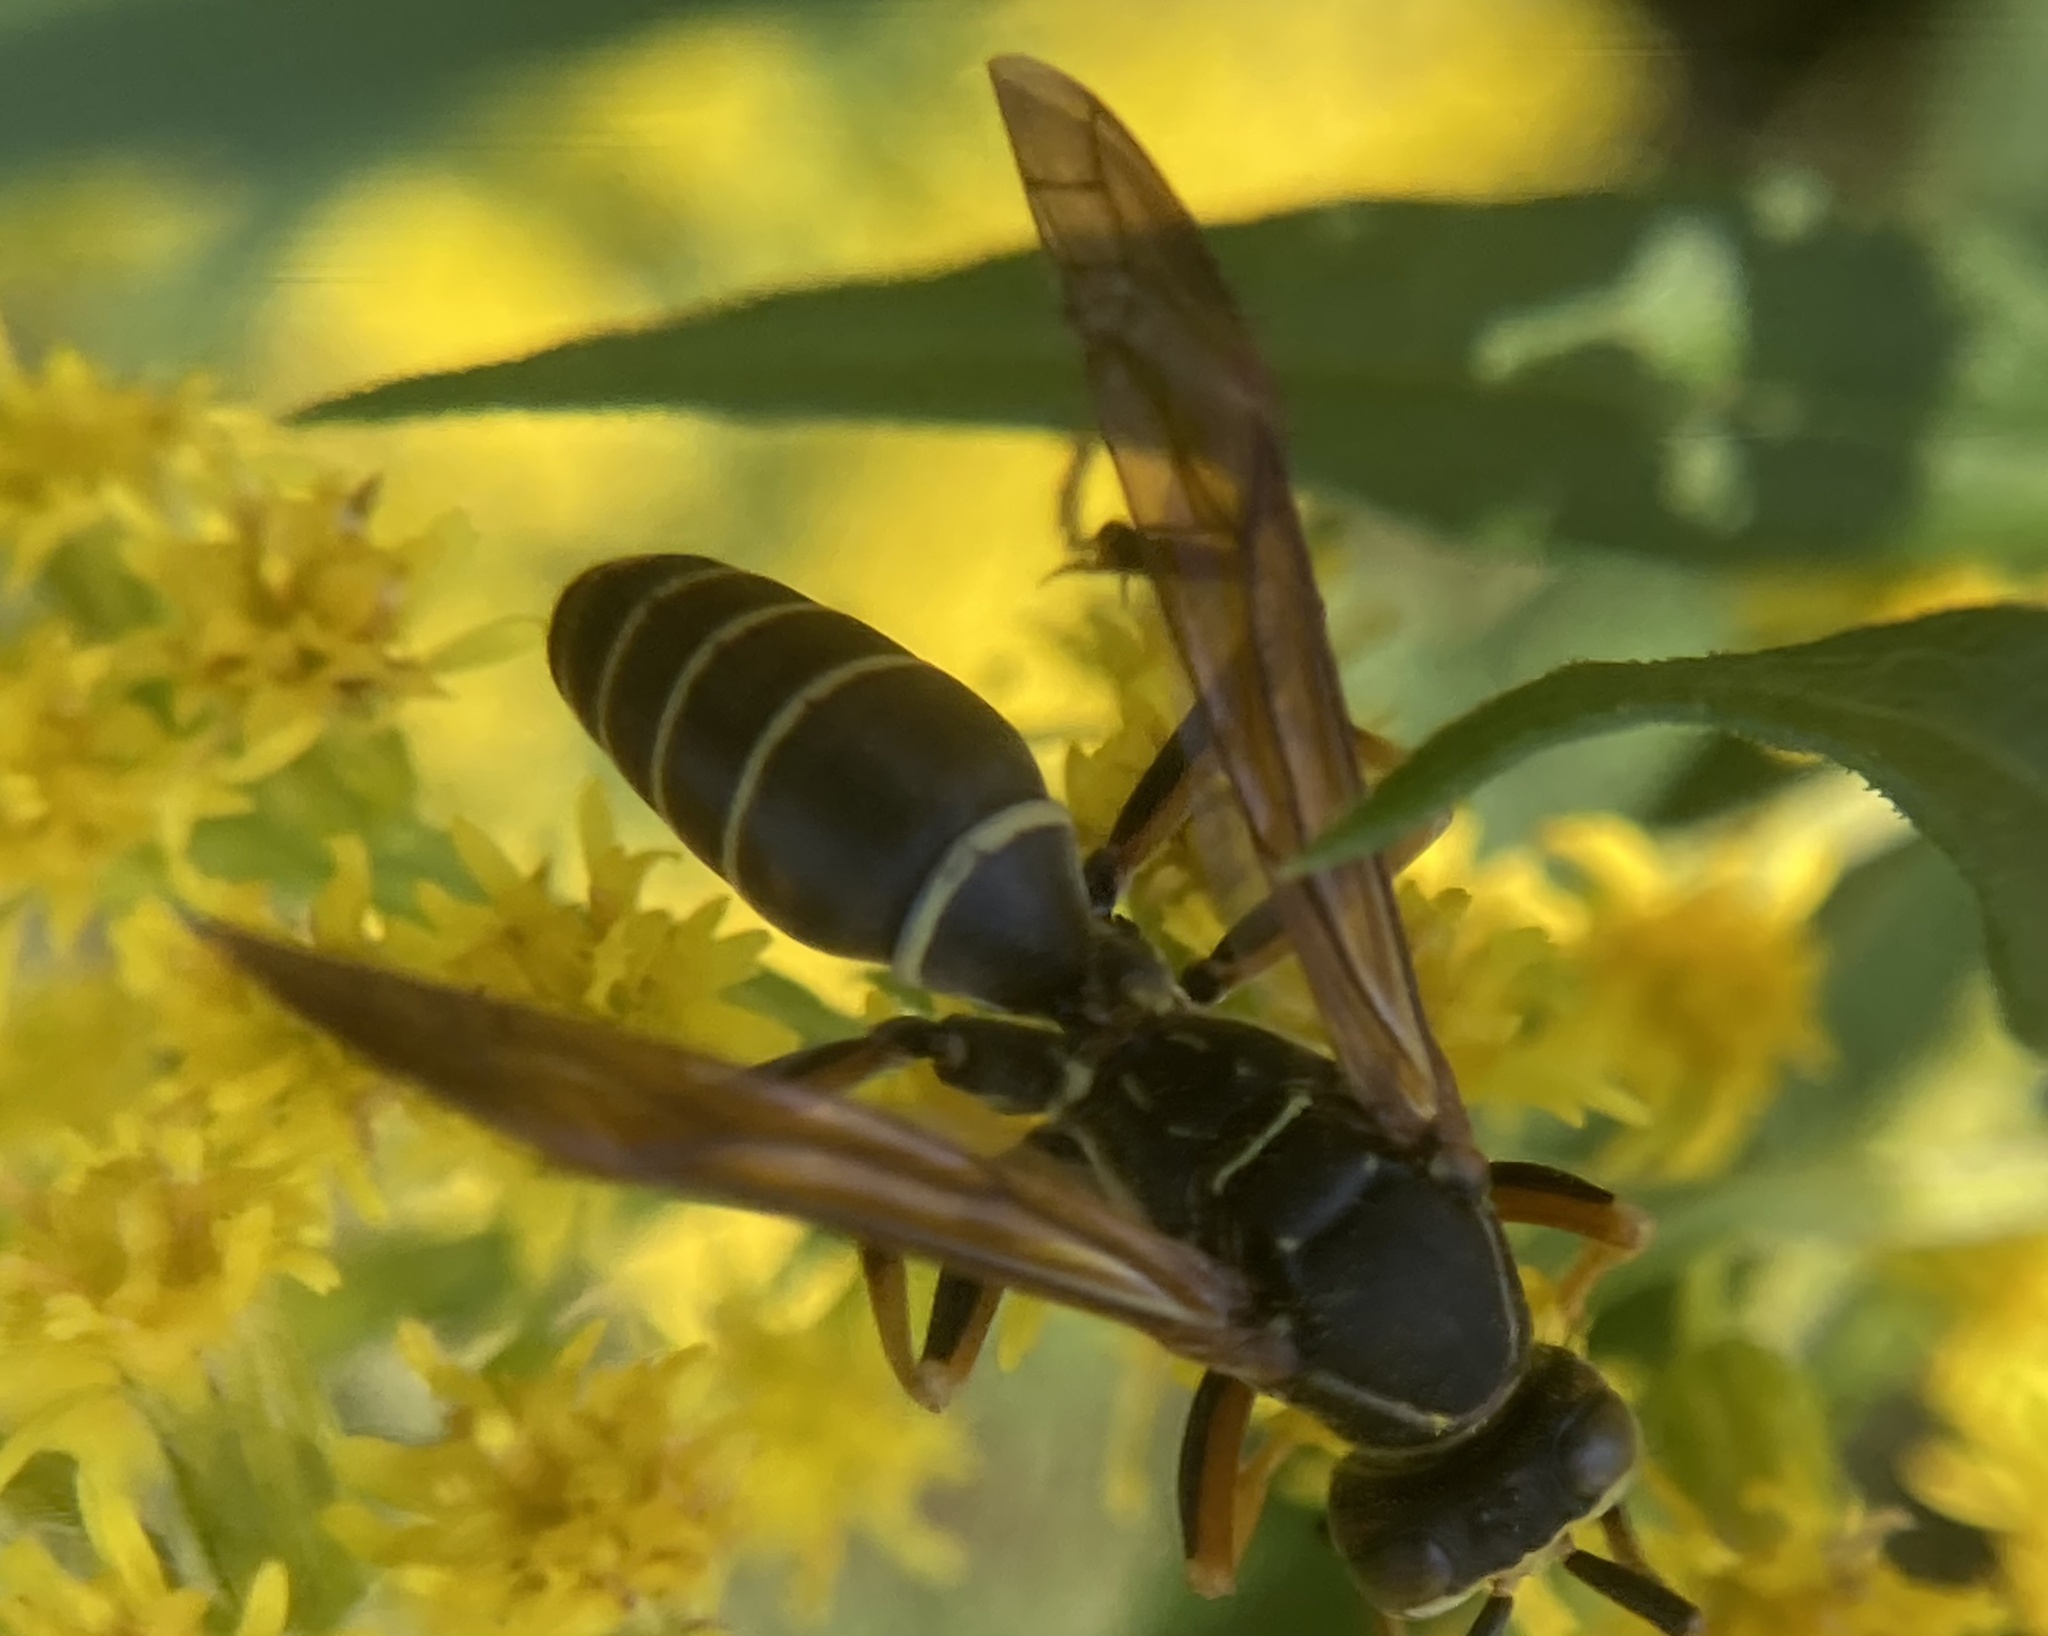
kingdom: Animalia
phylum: Arthropoda
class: Insecta
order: Hymenoptera
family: Eumenidae
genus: Polistes
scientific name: Polistes fuscatus
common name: Dark paper wasp
